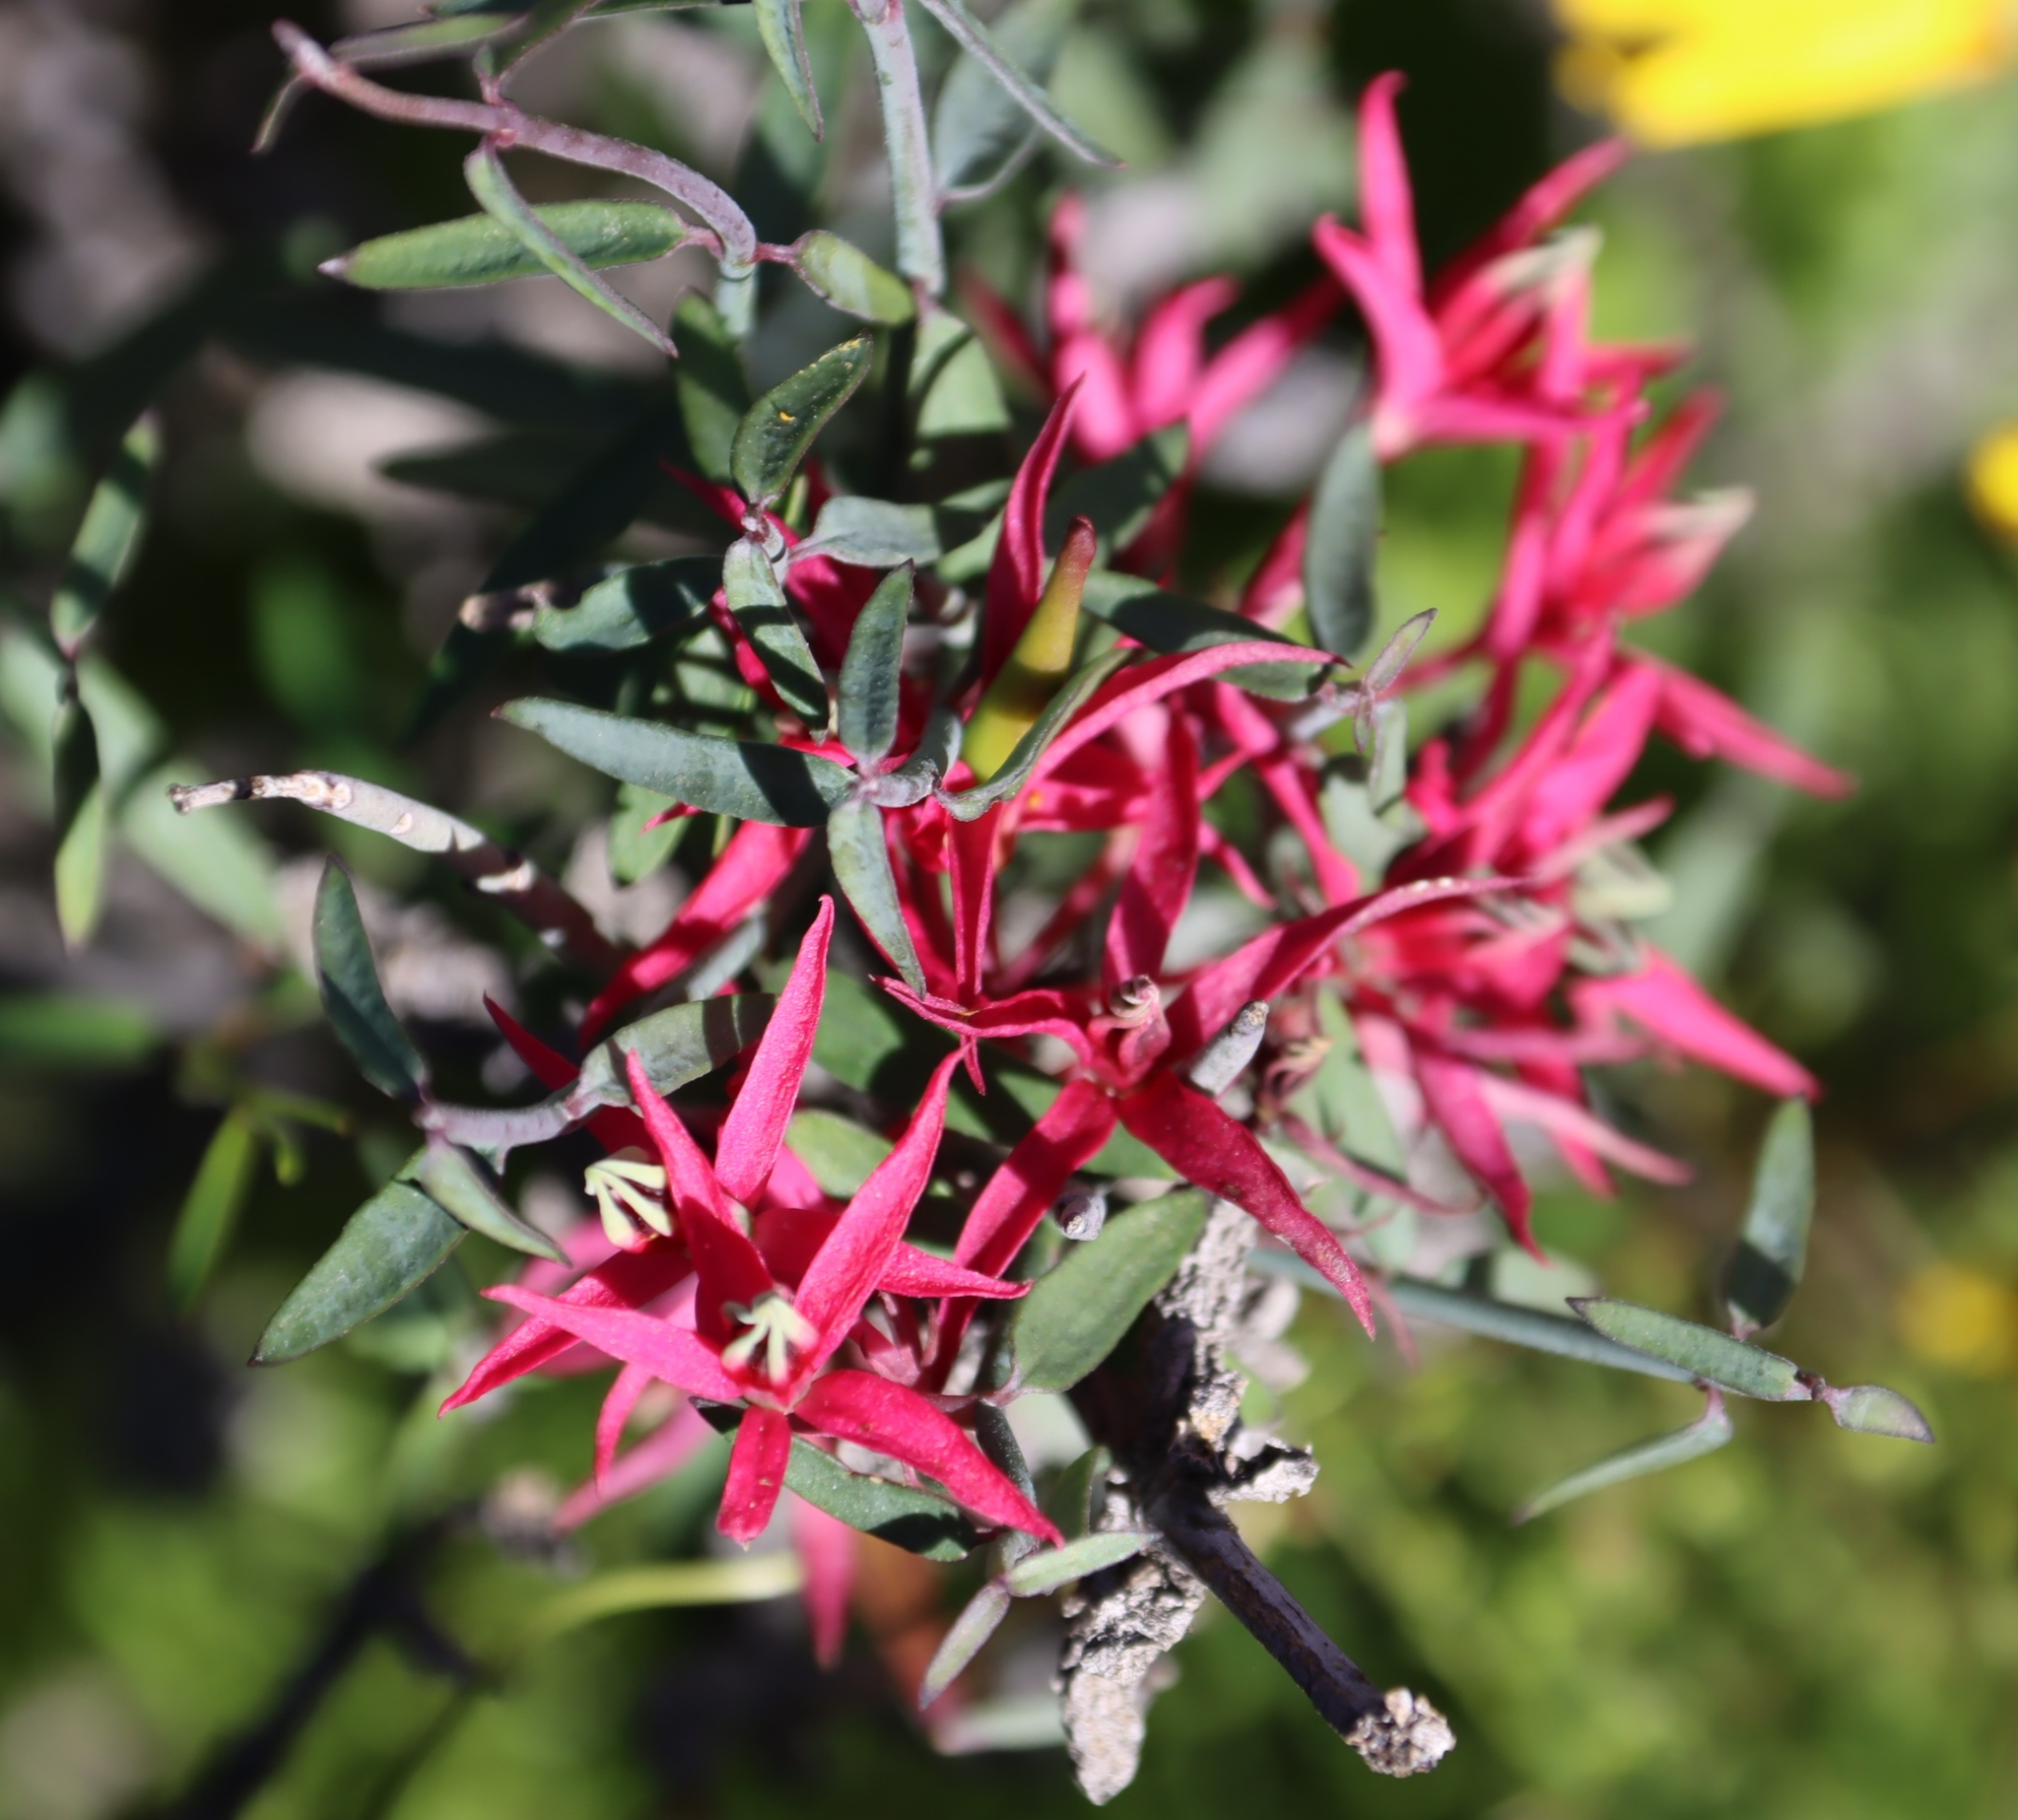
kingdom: Plantae
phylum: Tracheophyta
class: Magnoliopsida
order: Gentianales
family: Apocynaceae
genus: Microloma
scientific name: Microloma calycinum
